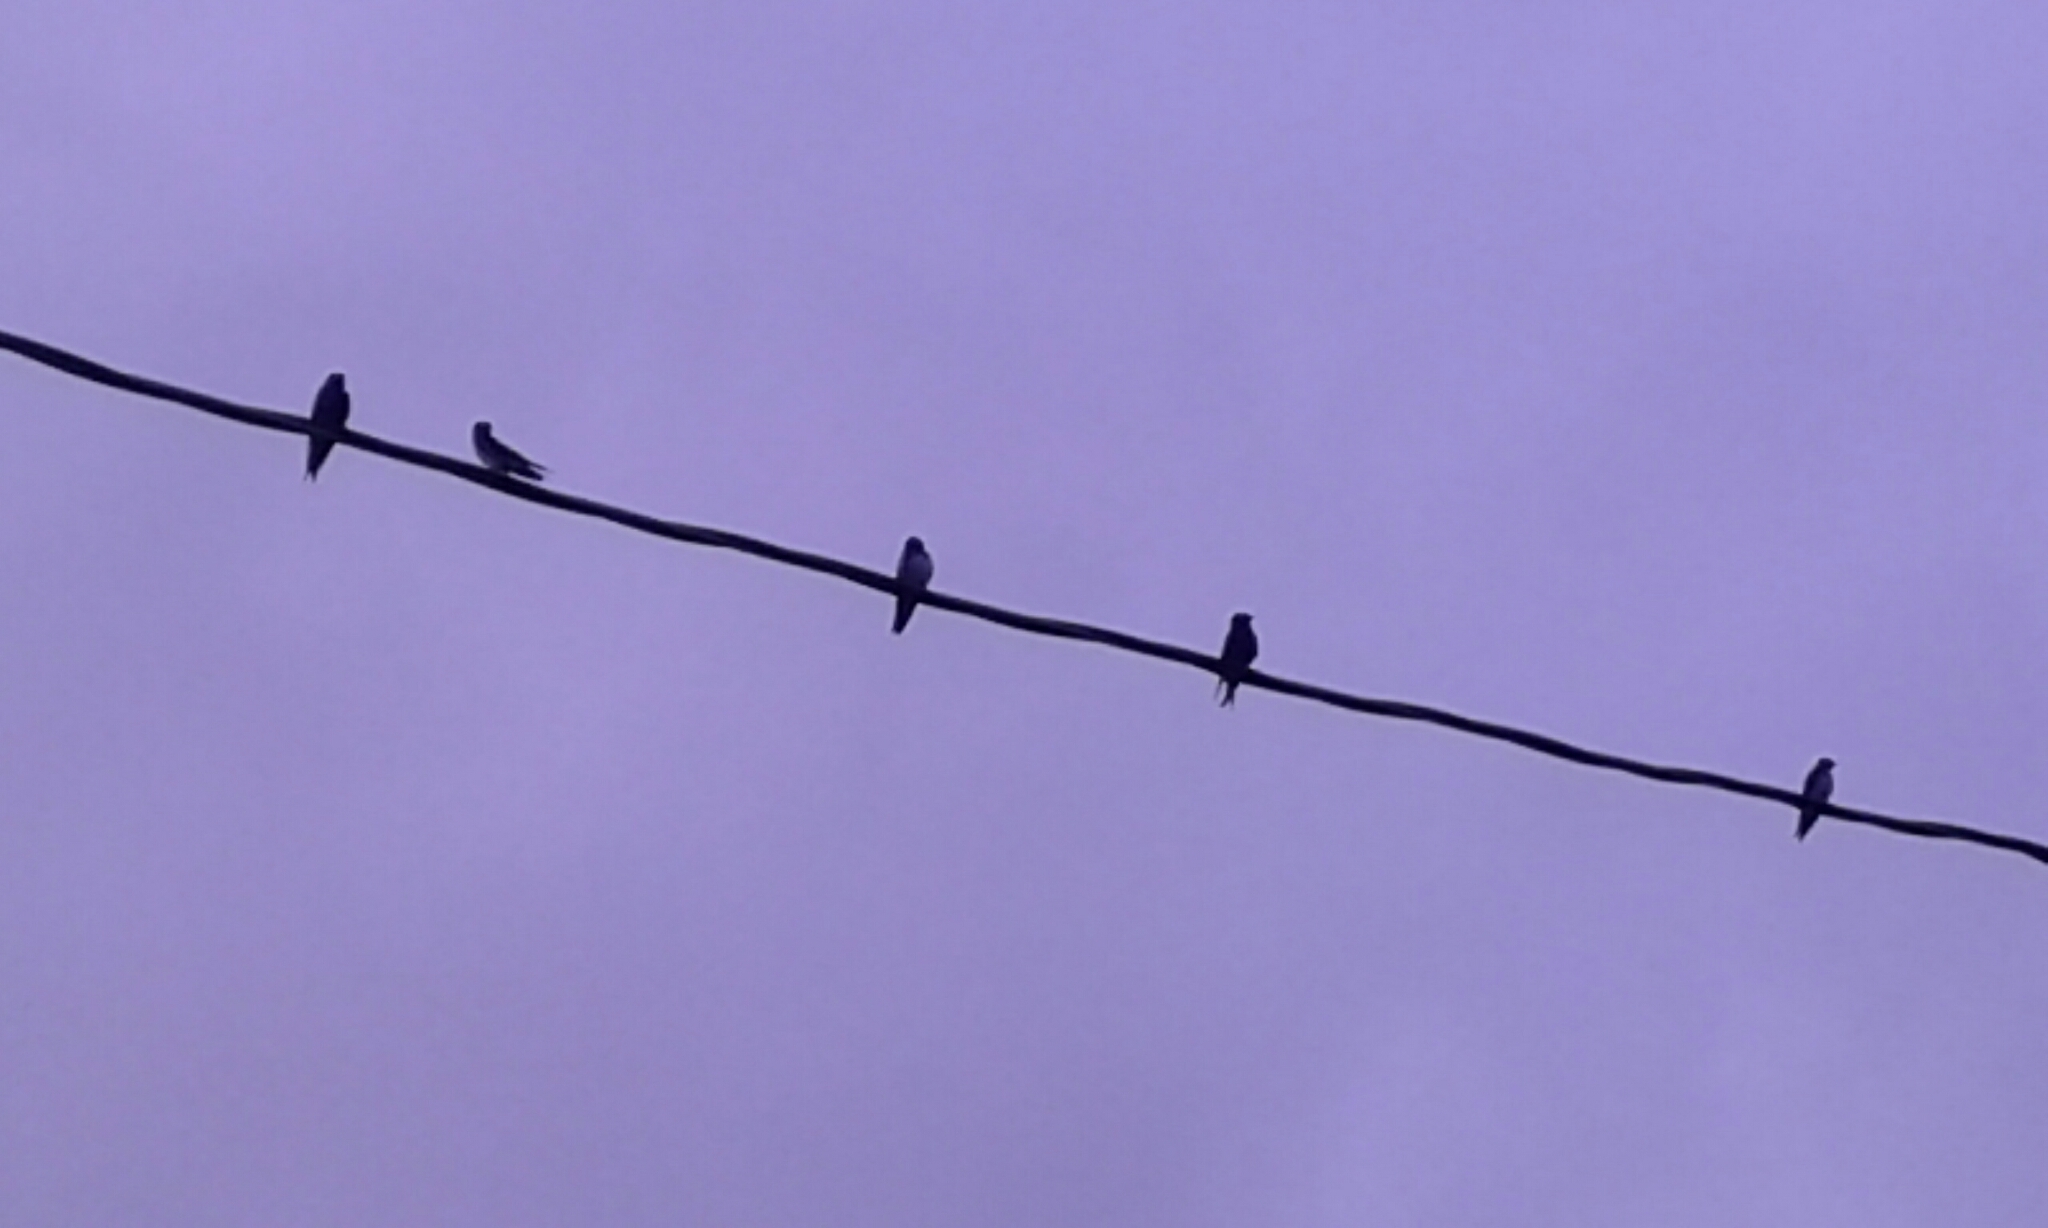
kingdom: Animalia
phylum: Chordata
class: Aves
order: Passeriformes
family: Hirundinidae
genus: Progne
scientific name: Progne subis
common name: Purple martin
